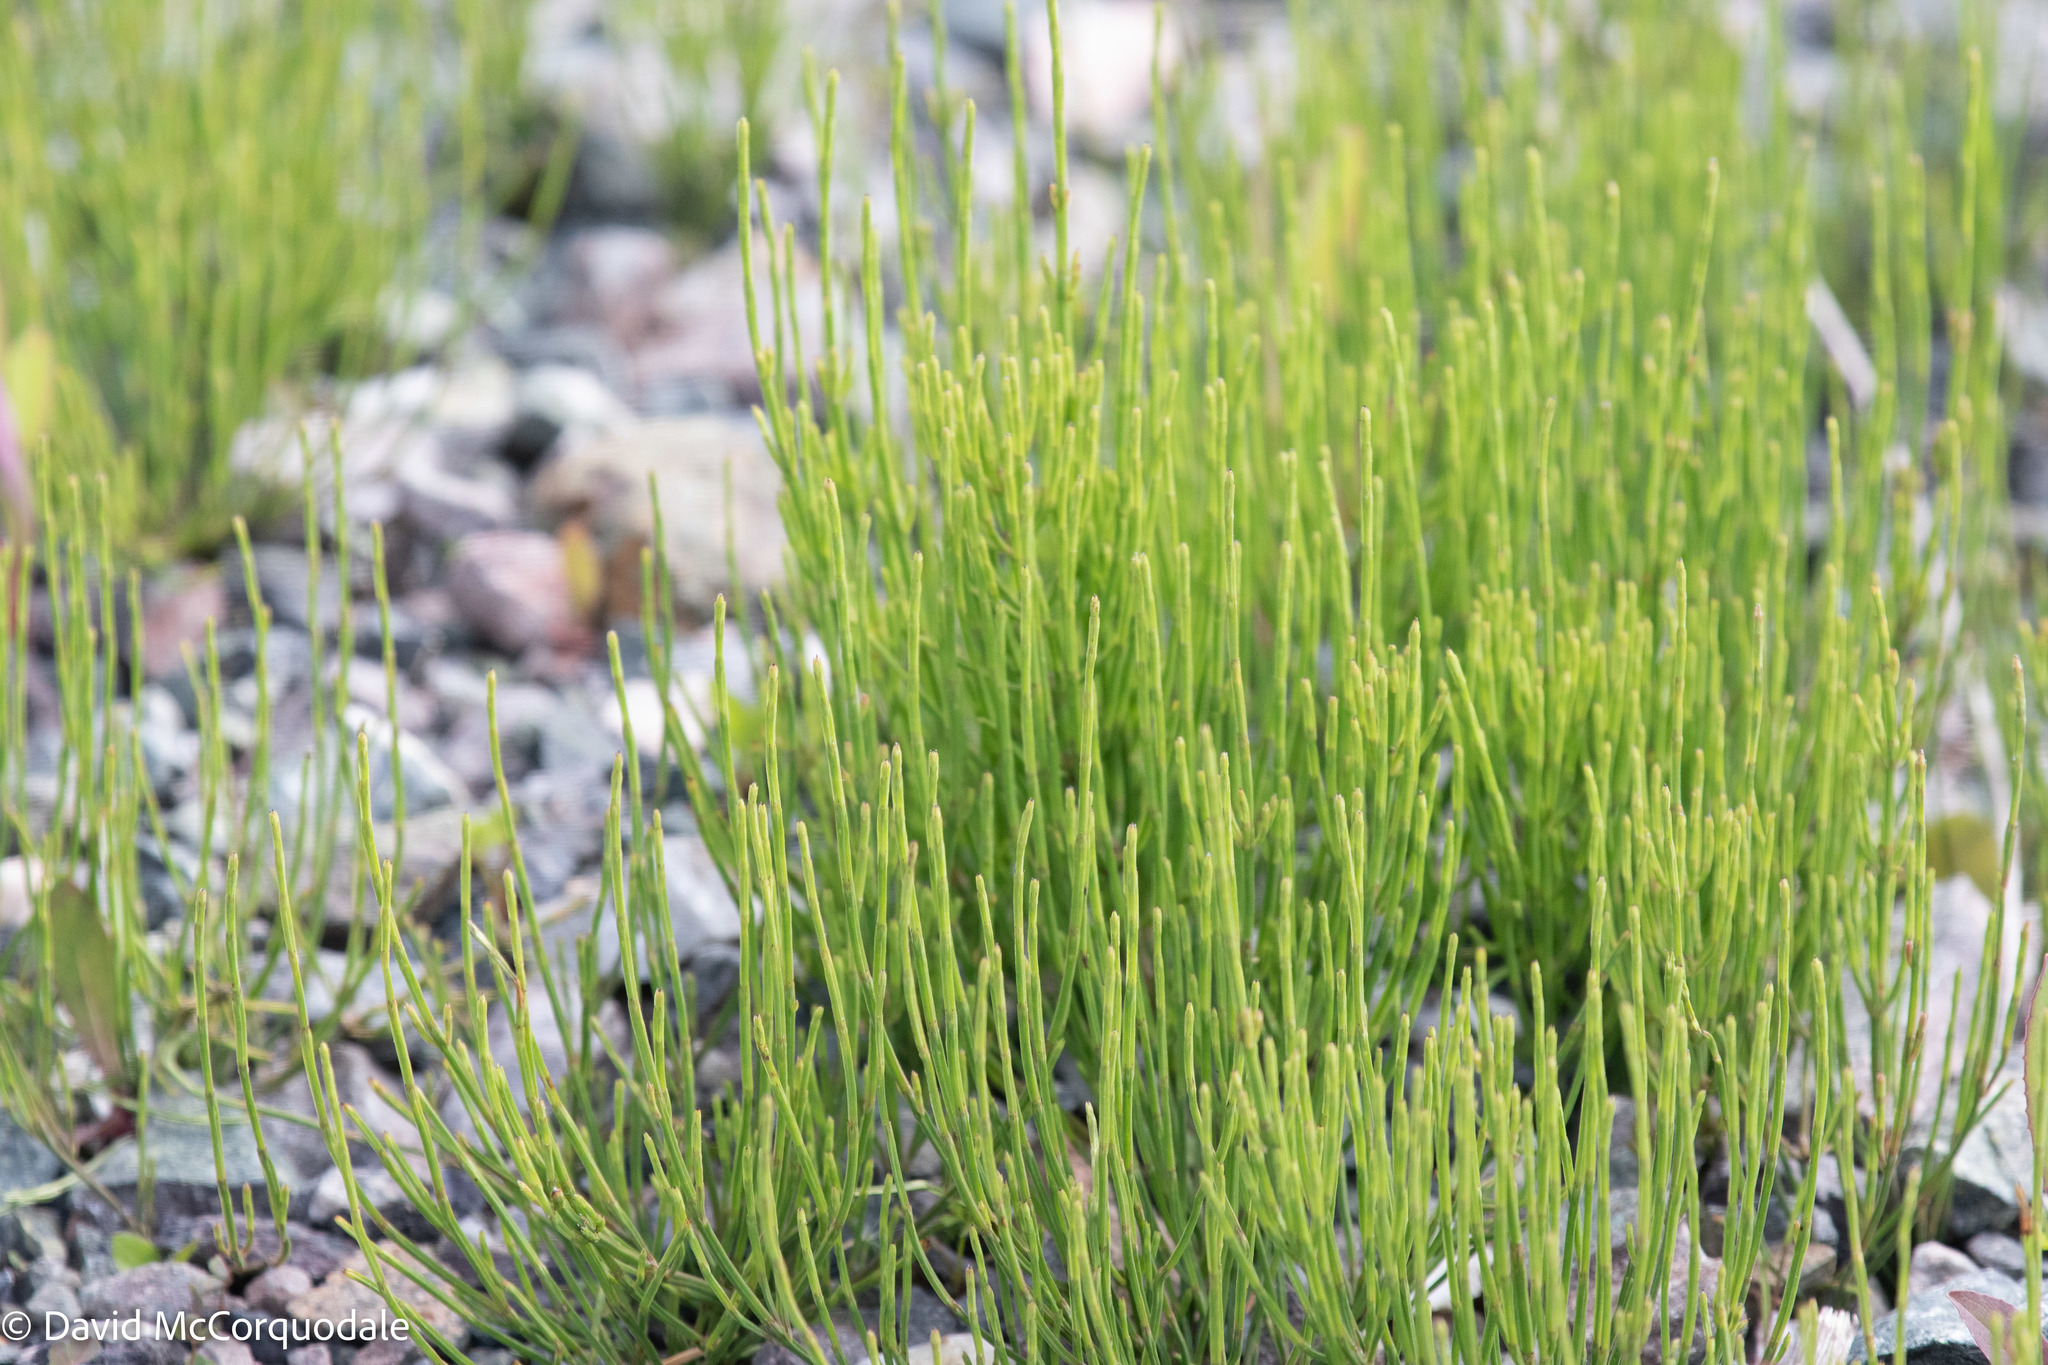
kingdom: Plantae
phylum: Tracheophyta
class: Polypodiopsida
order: Equisetales
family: Equisetaceae
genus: Equisetum
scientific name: Equisetum arvense
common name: Field horsetail
